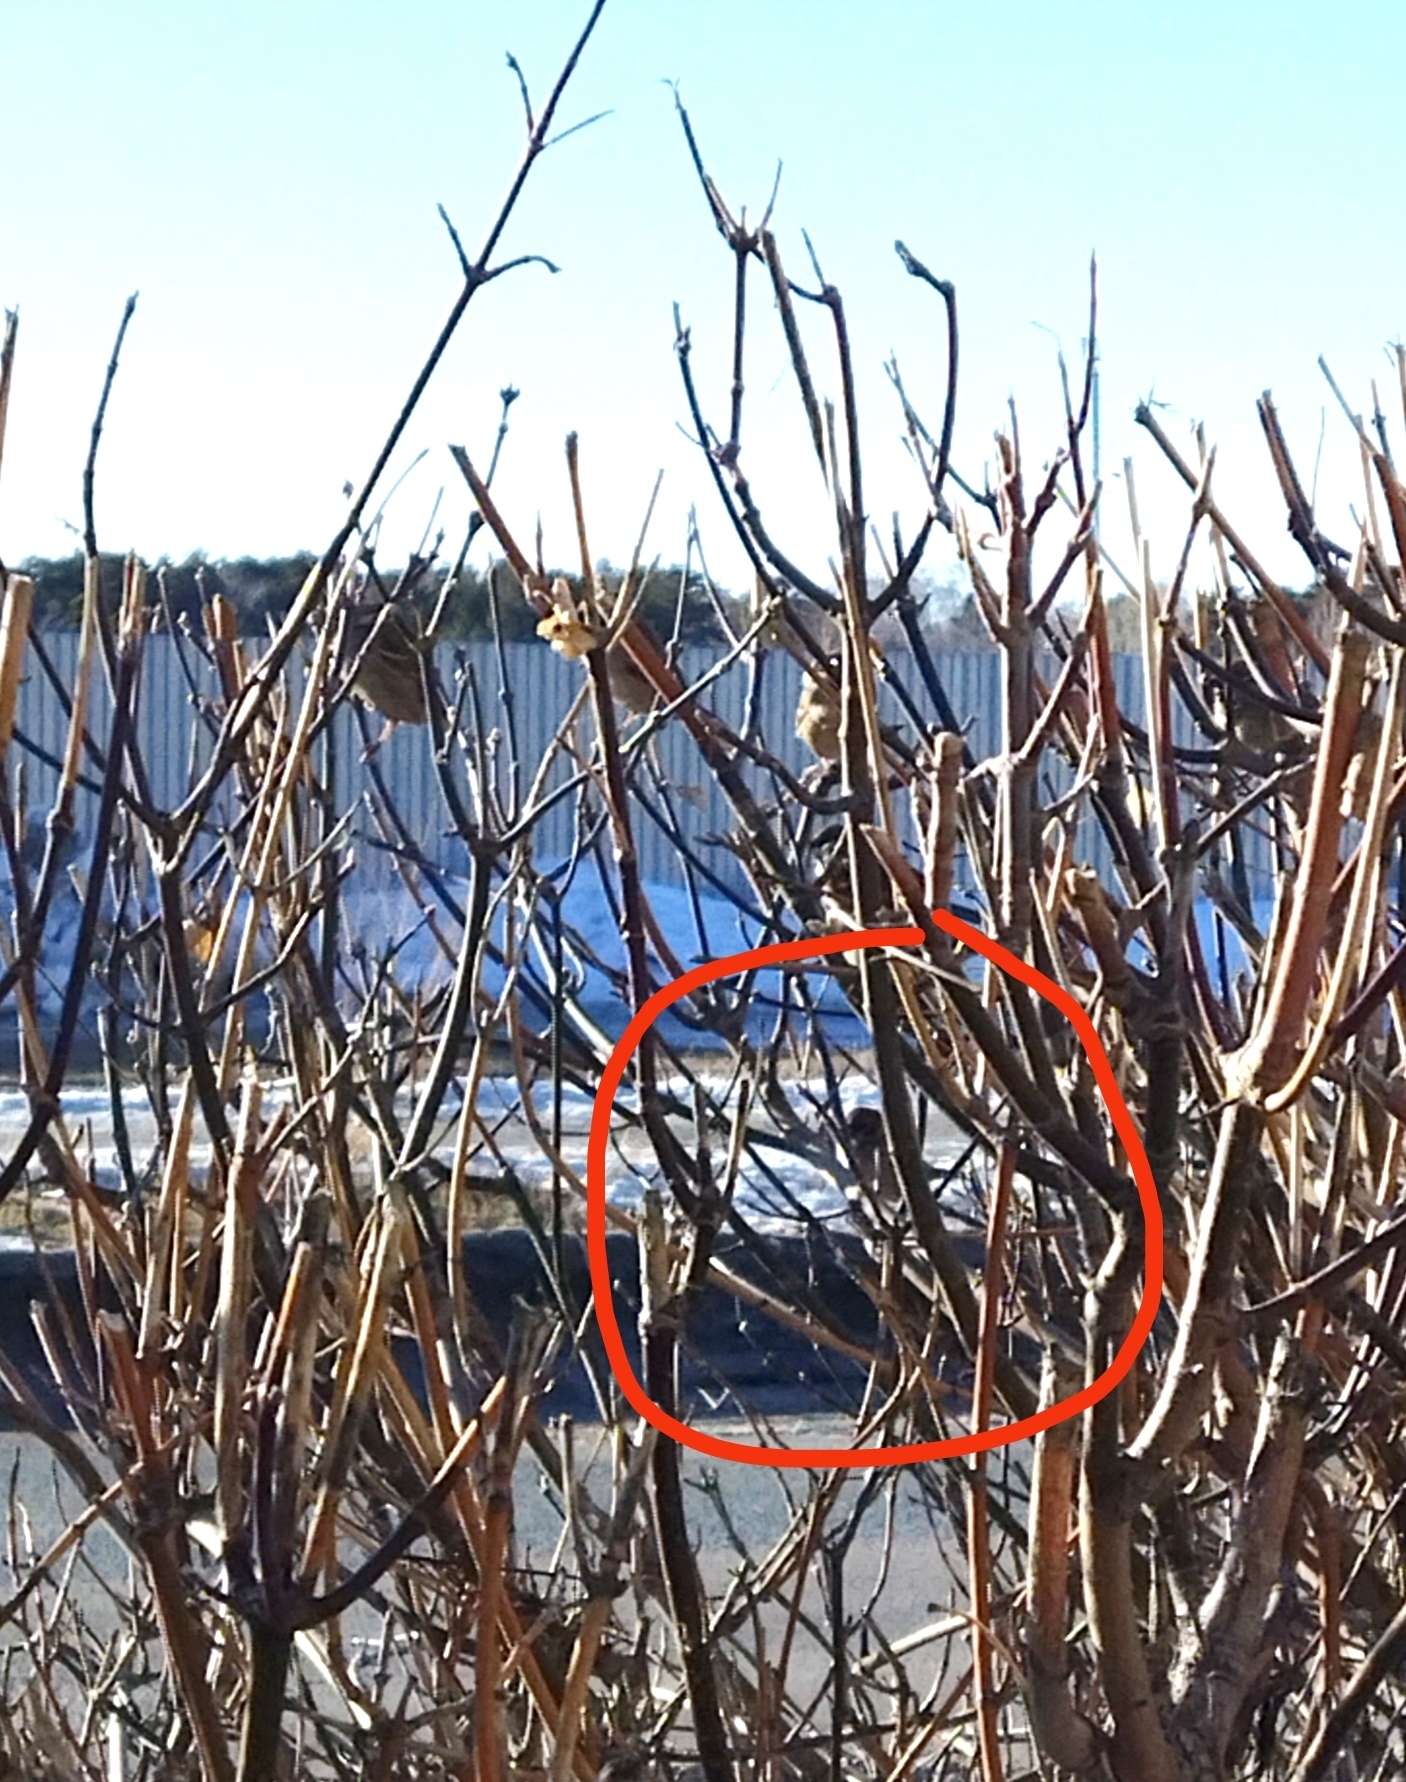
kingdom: Animalia
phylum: Chordata
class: Aves
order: Passeriformes
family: Passeridae
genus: Passer
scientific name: Passer montanus
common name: Eurasian tree sparrow
